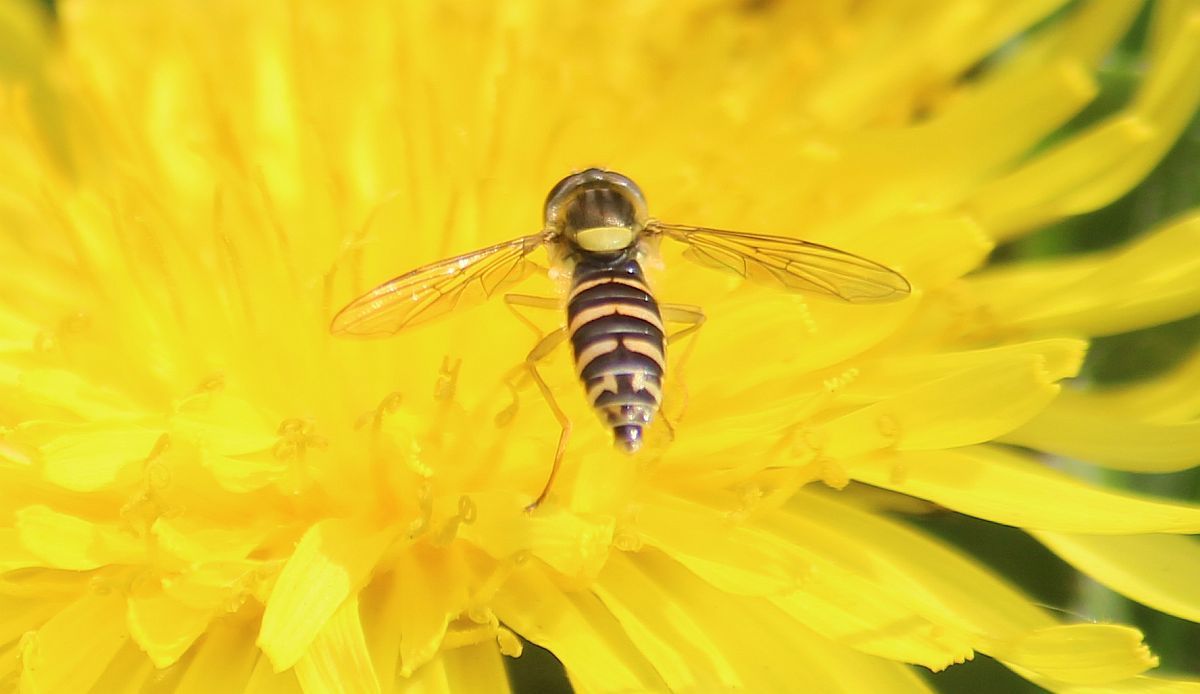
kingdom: Animalia
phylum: Arthropoda
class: Insecta
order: Diptera
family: Syrphidae
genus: Sphaerophoria
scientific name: Sphaerophoria
